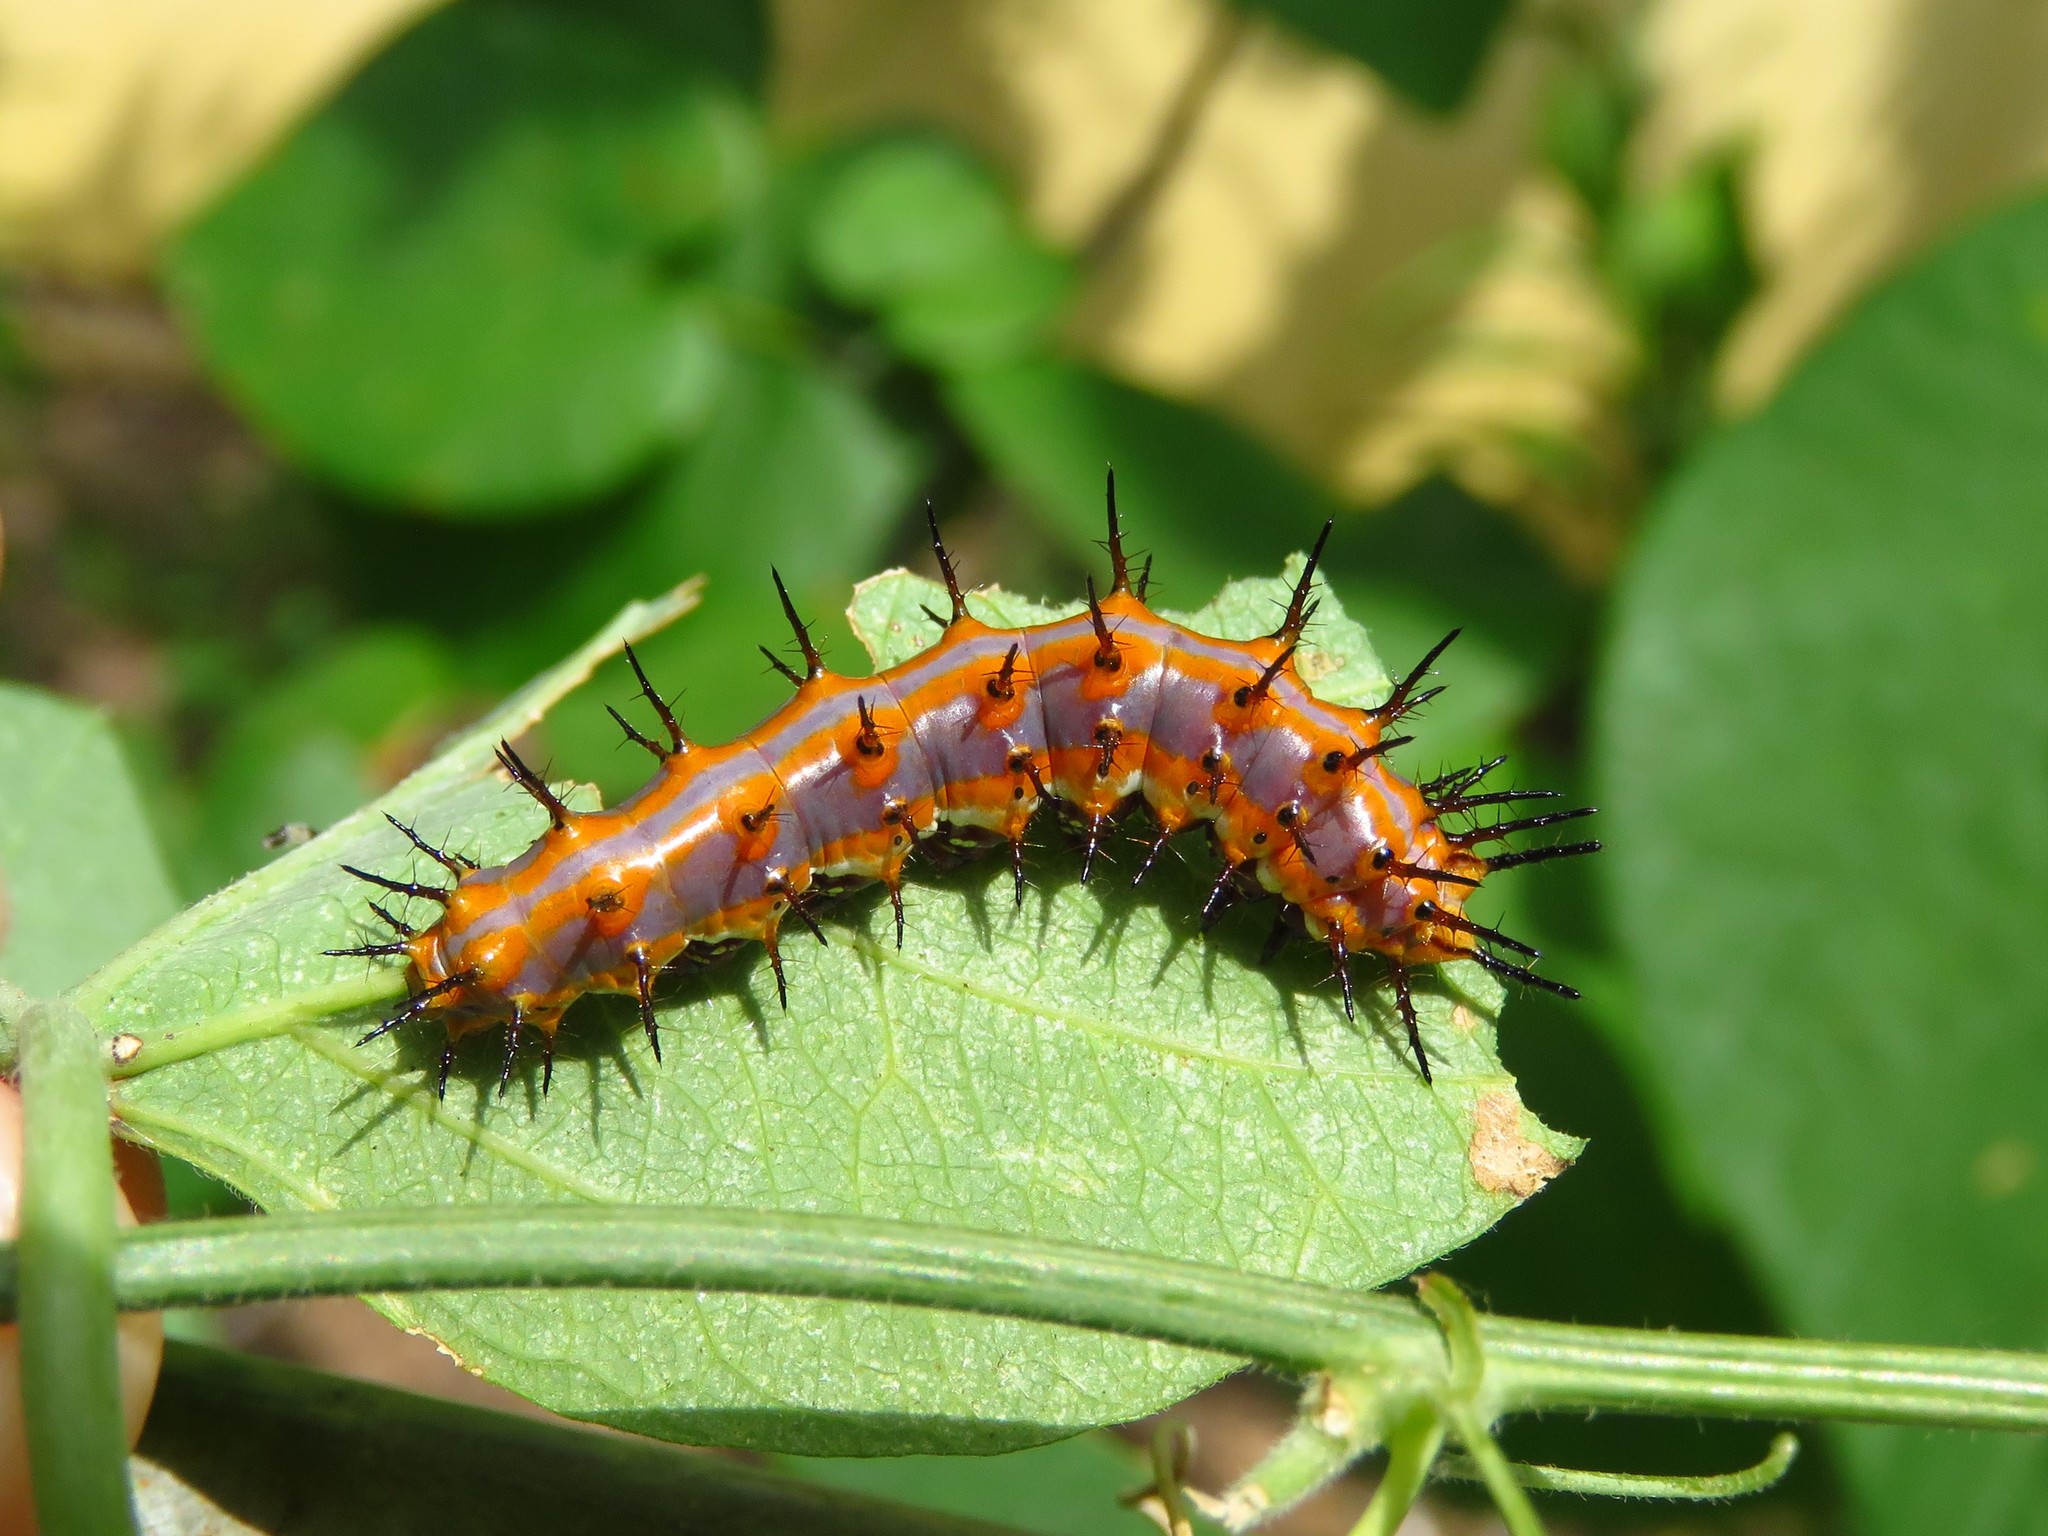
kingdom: Animalia
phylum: Arthropoda
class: Insecta
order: Lepidoptera
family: Nymphalidae
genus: Dione
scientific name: Dione vanillae
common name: Gulf fritillary
